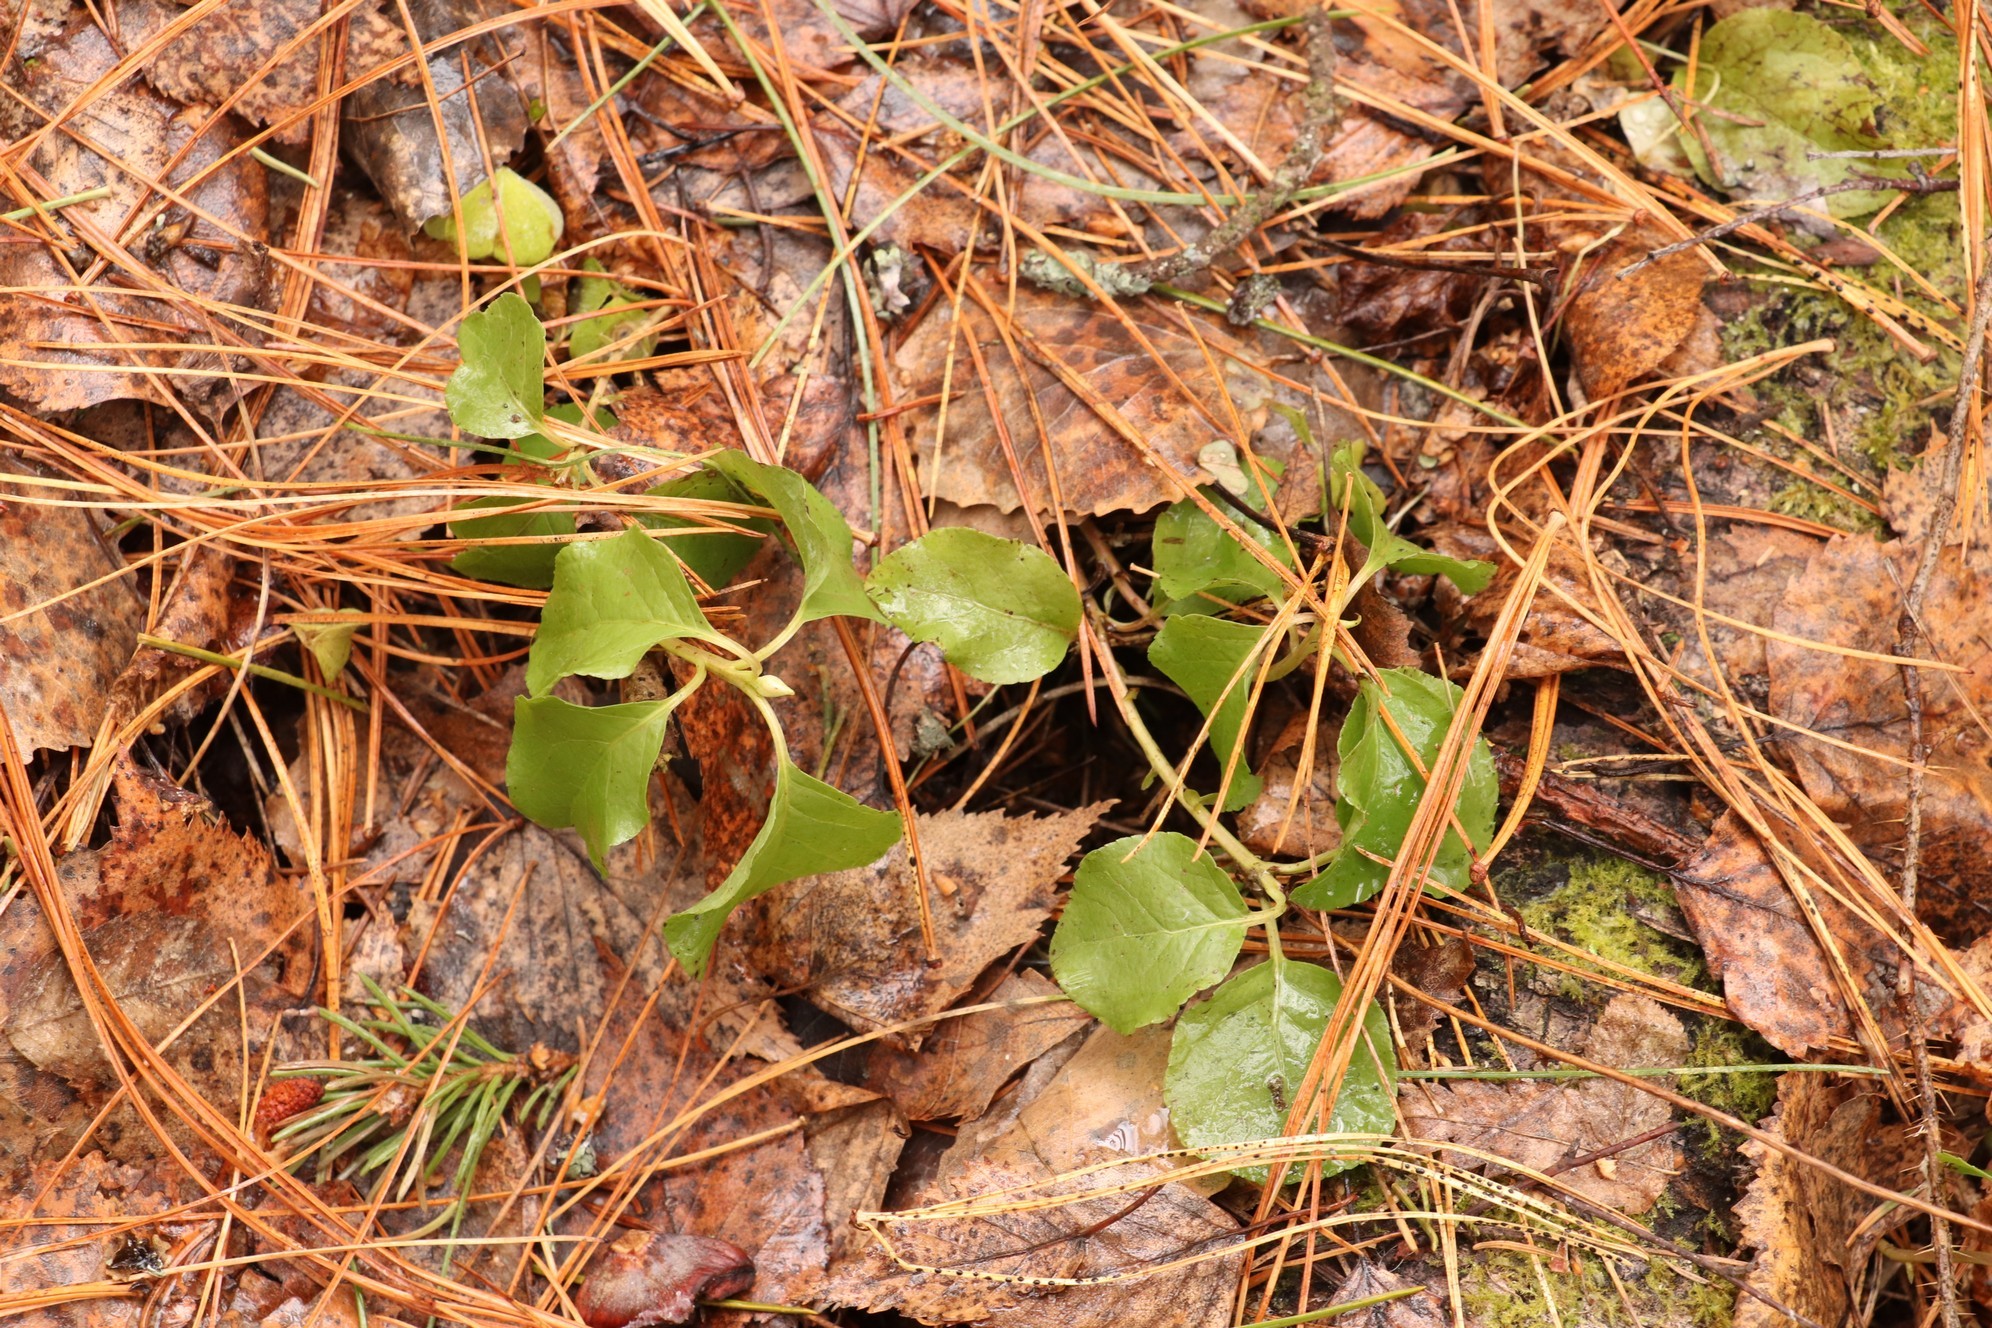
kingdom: Plantae
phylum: Tracheophyta
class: Magnoliopsida
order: Ericales
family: Ericaceae
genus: Orthilia
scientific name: Orthilia secunda
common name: One-sided orthilia
